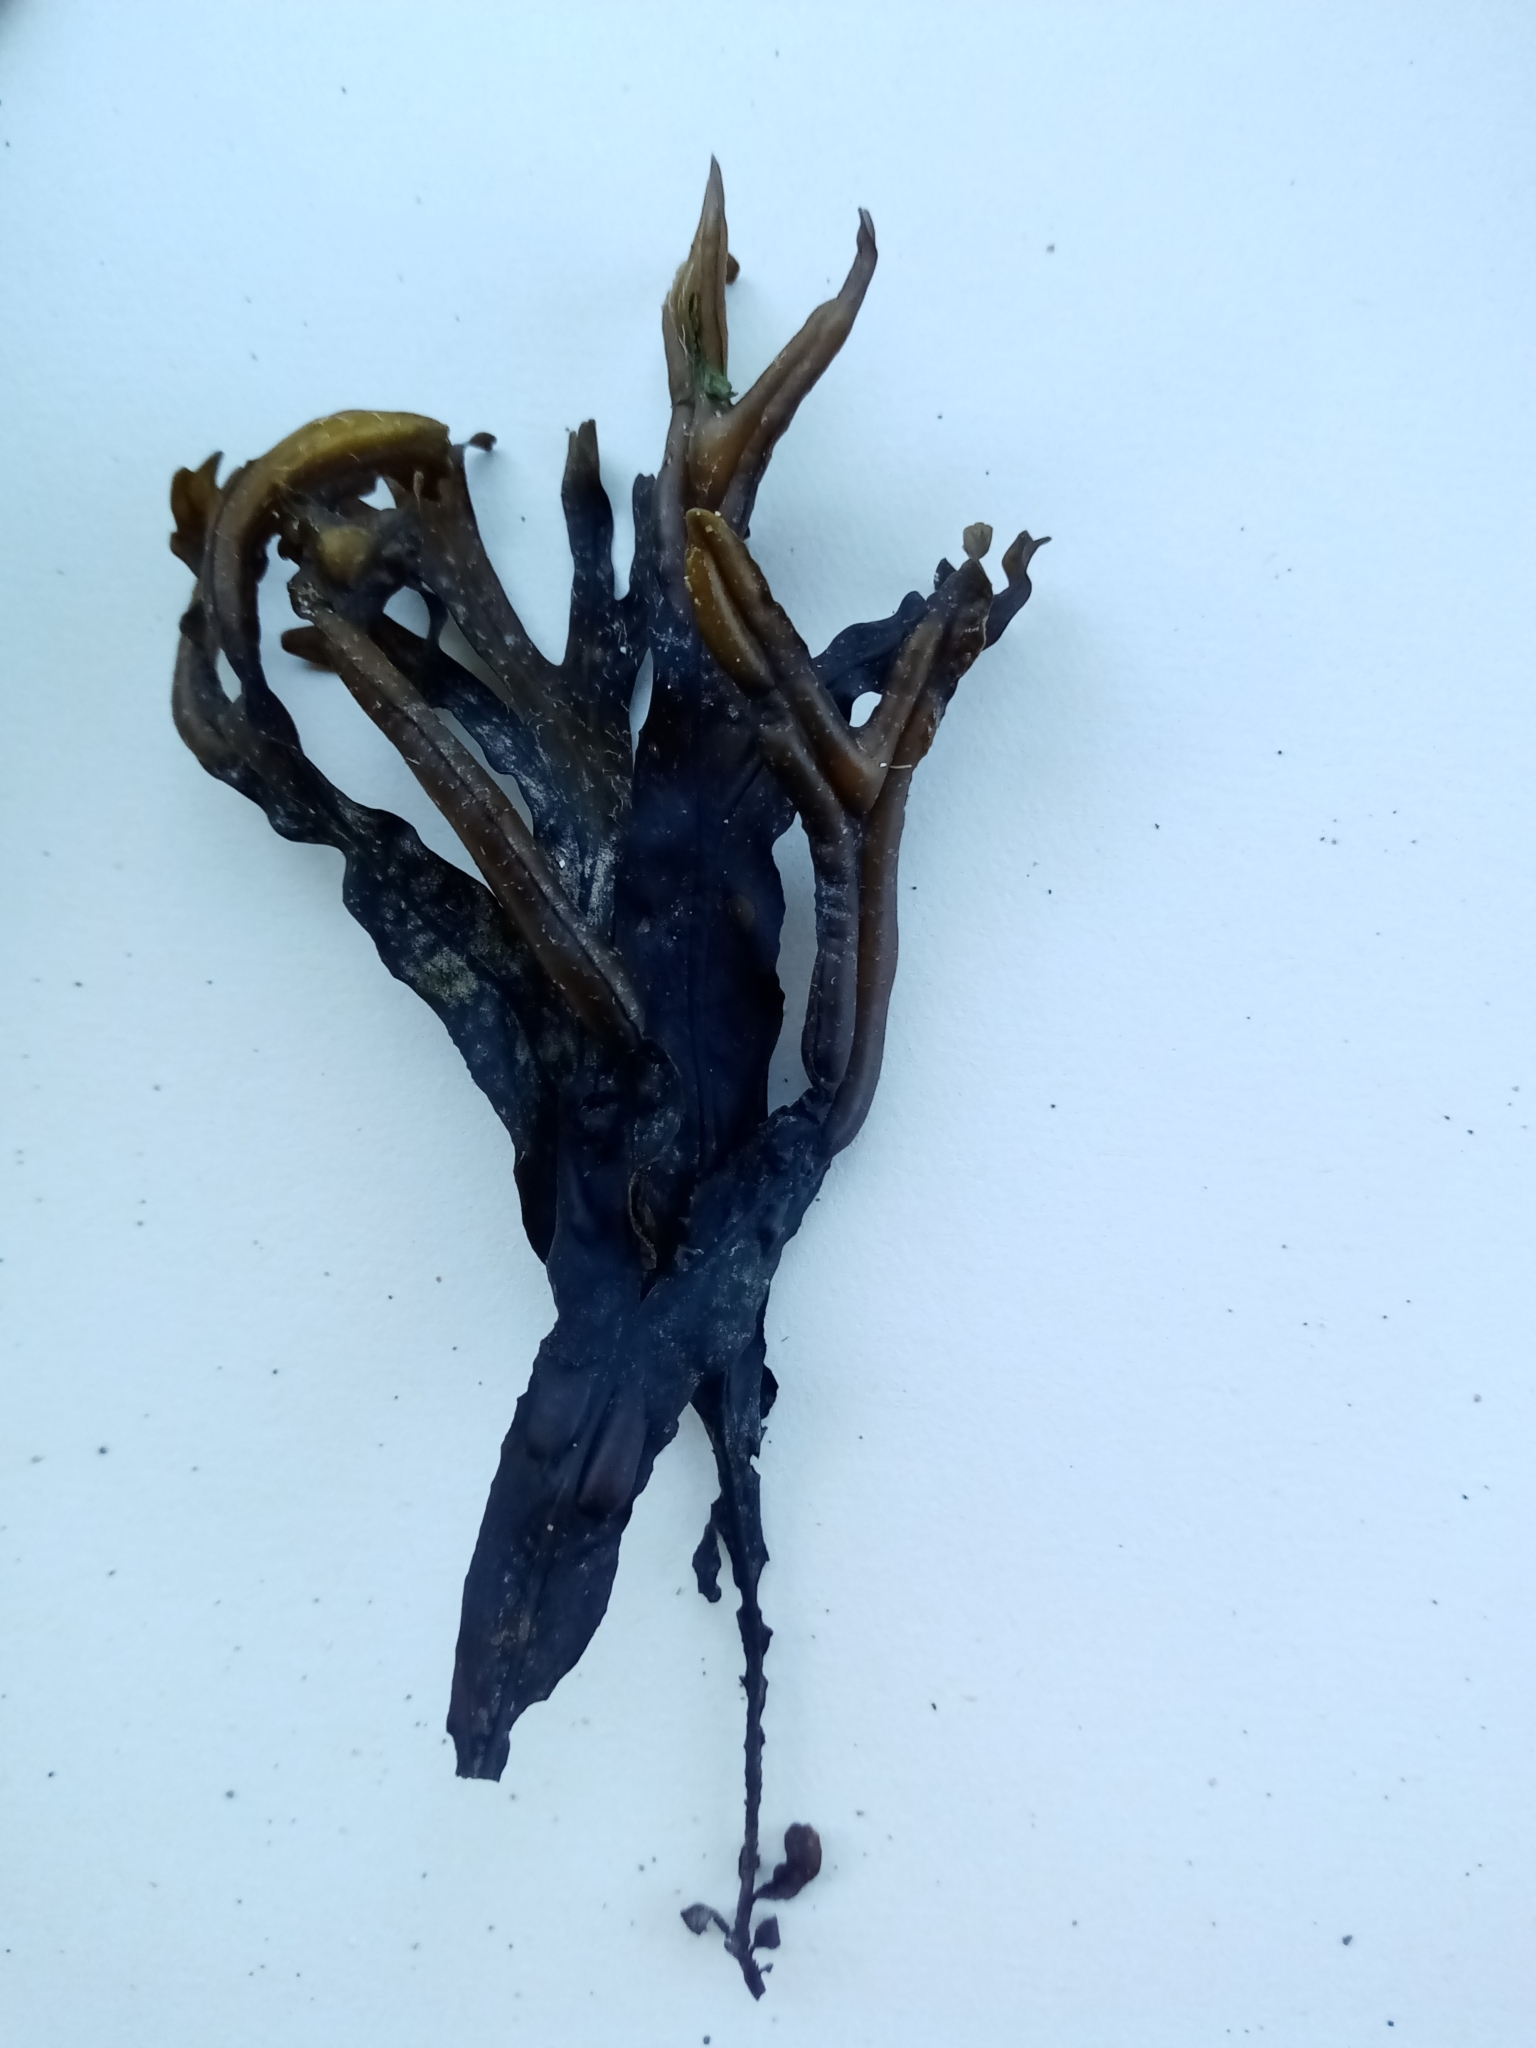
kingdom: Chromista
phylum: Ochrophyta
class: Phaeophyceae
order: Fucales
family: Fucaceae
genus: Fucus
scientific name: Fucus ceranoides
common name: Horned wrack
